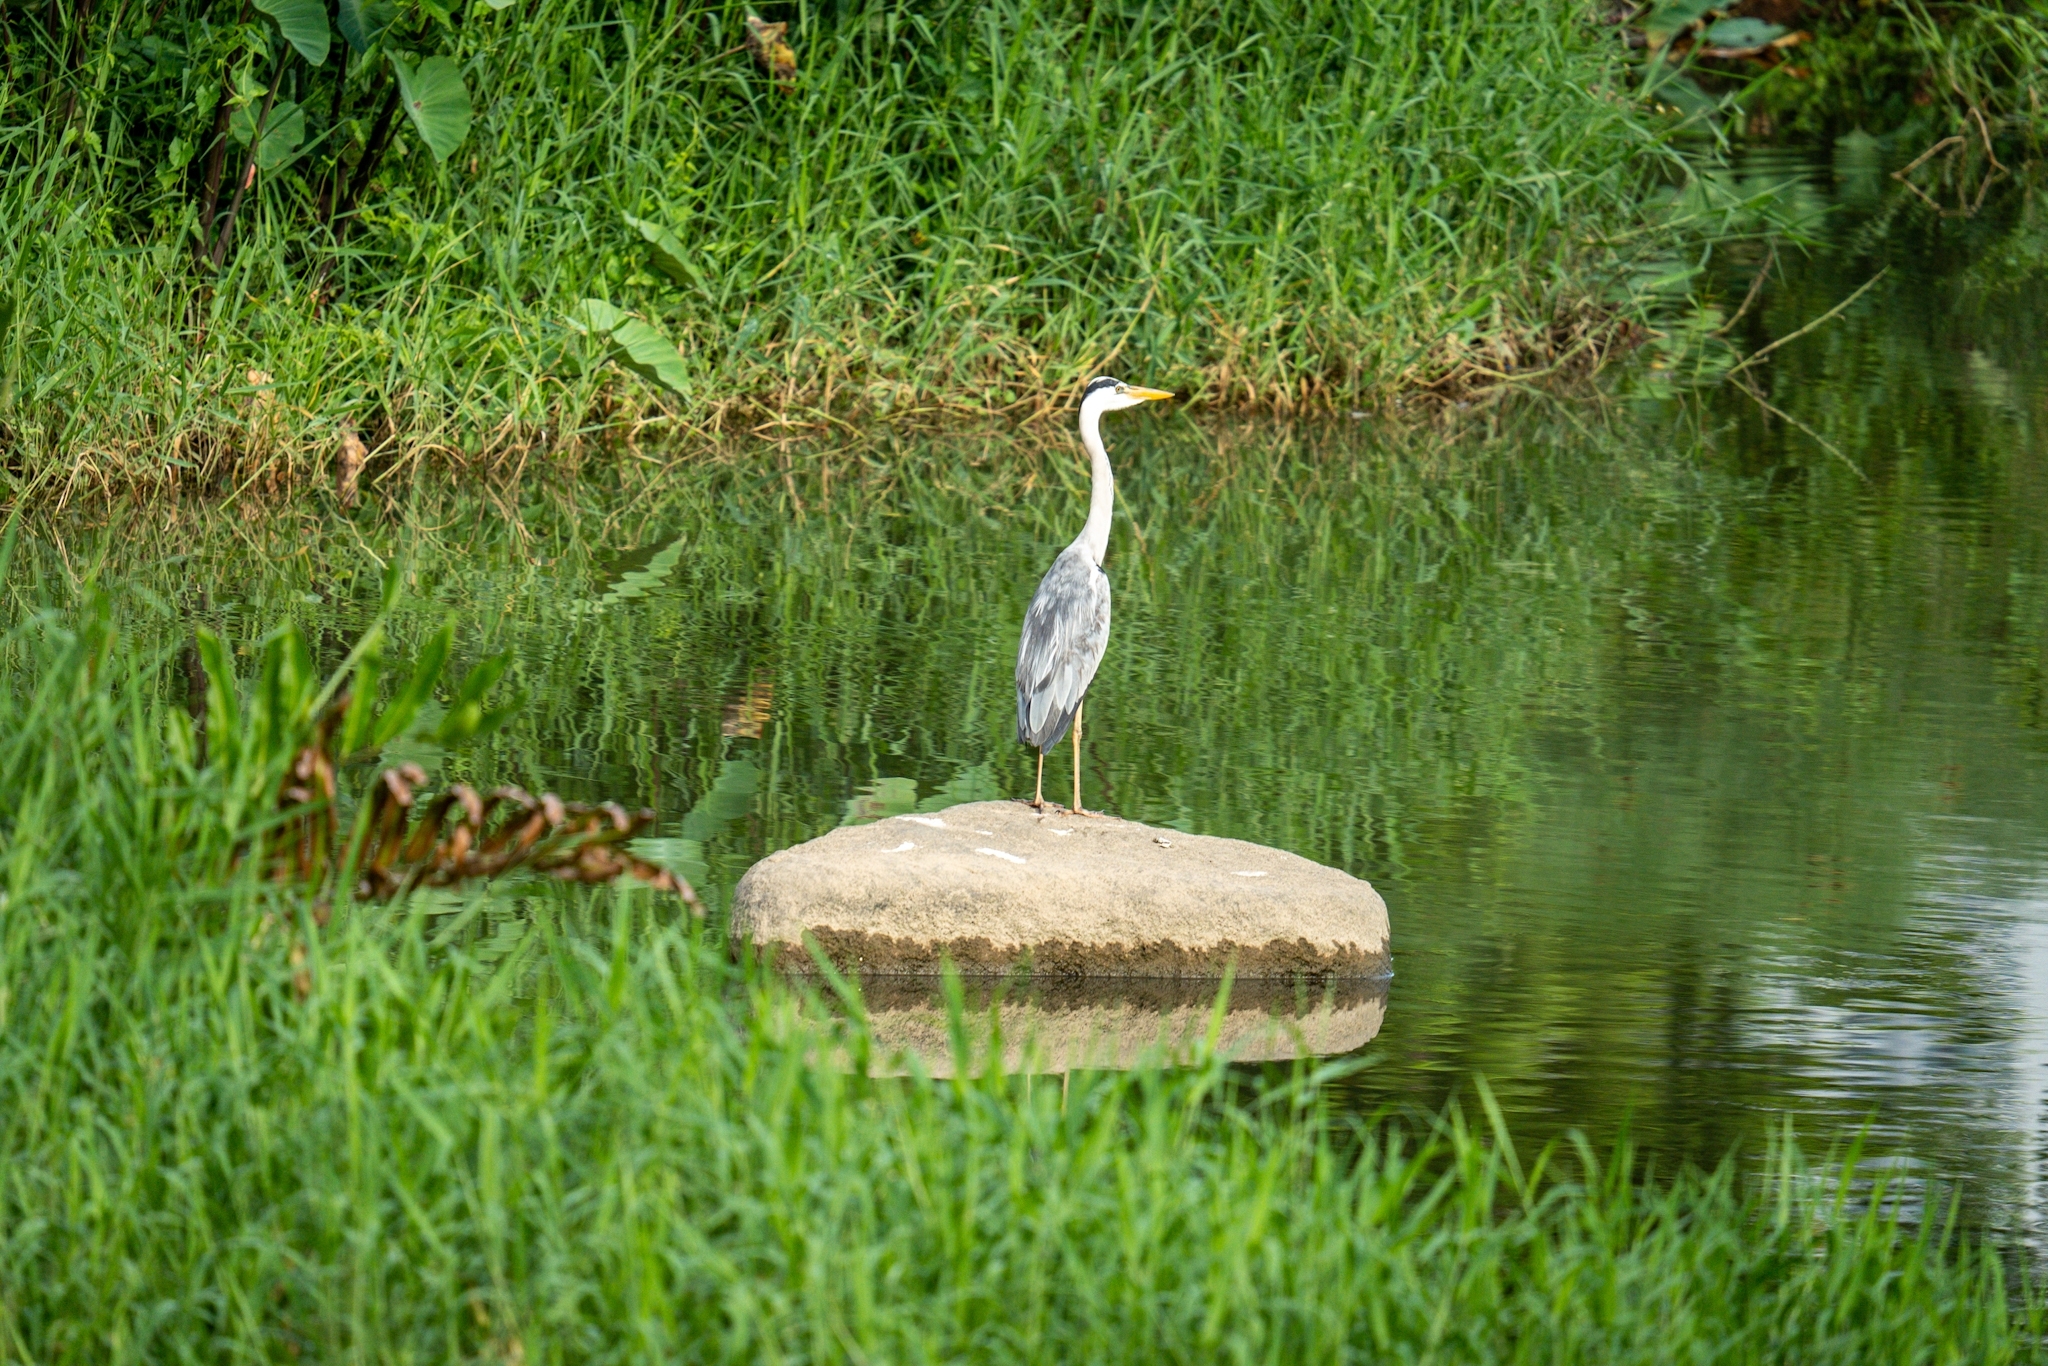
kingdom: Animalia
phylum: Chordata
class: Aves
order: Pelecaniformes
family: Ardeidae
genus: Ardea
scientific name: Ardea cinerea
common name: Grey heron
